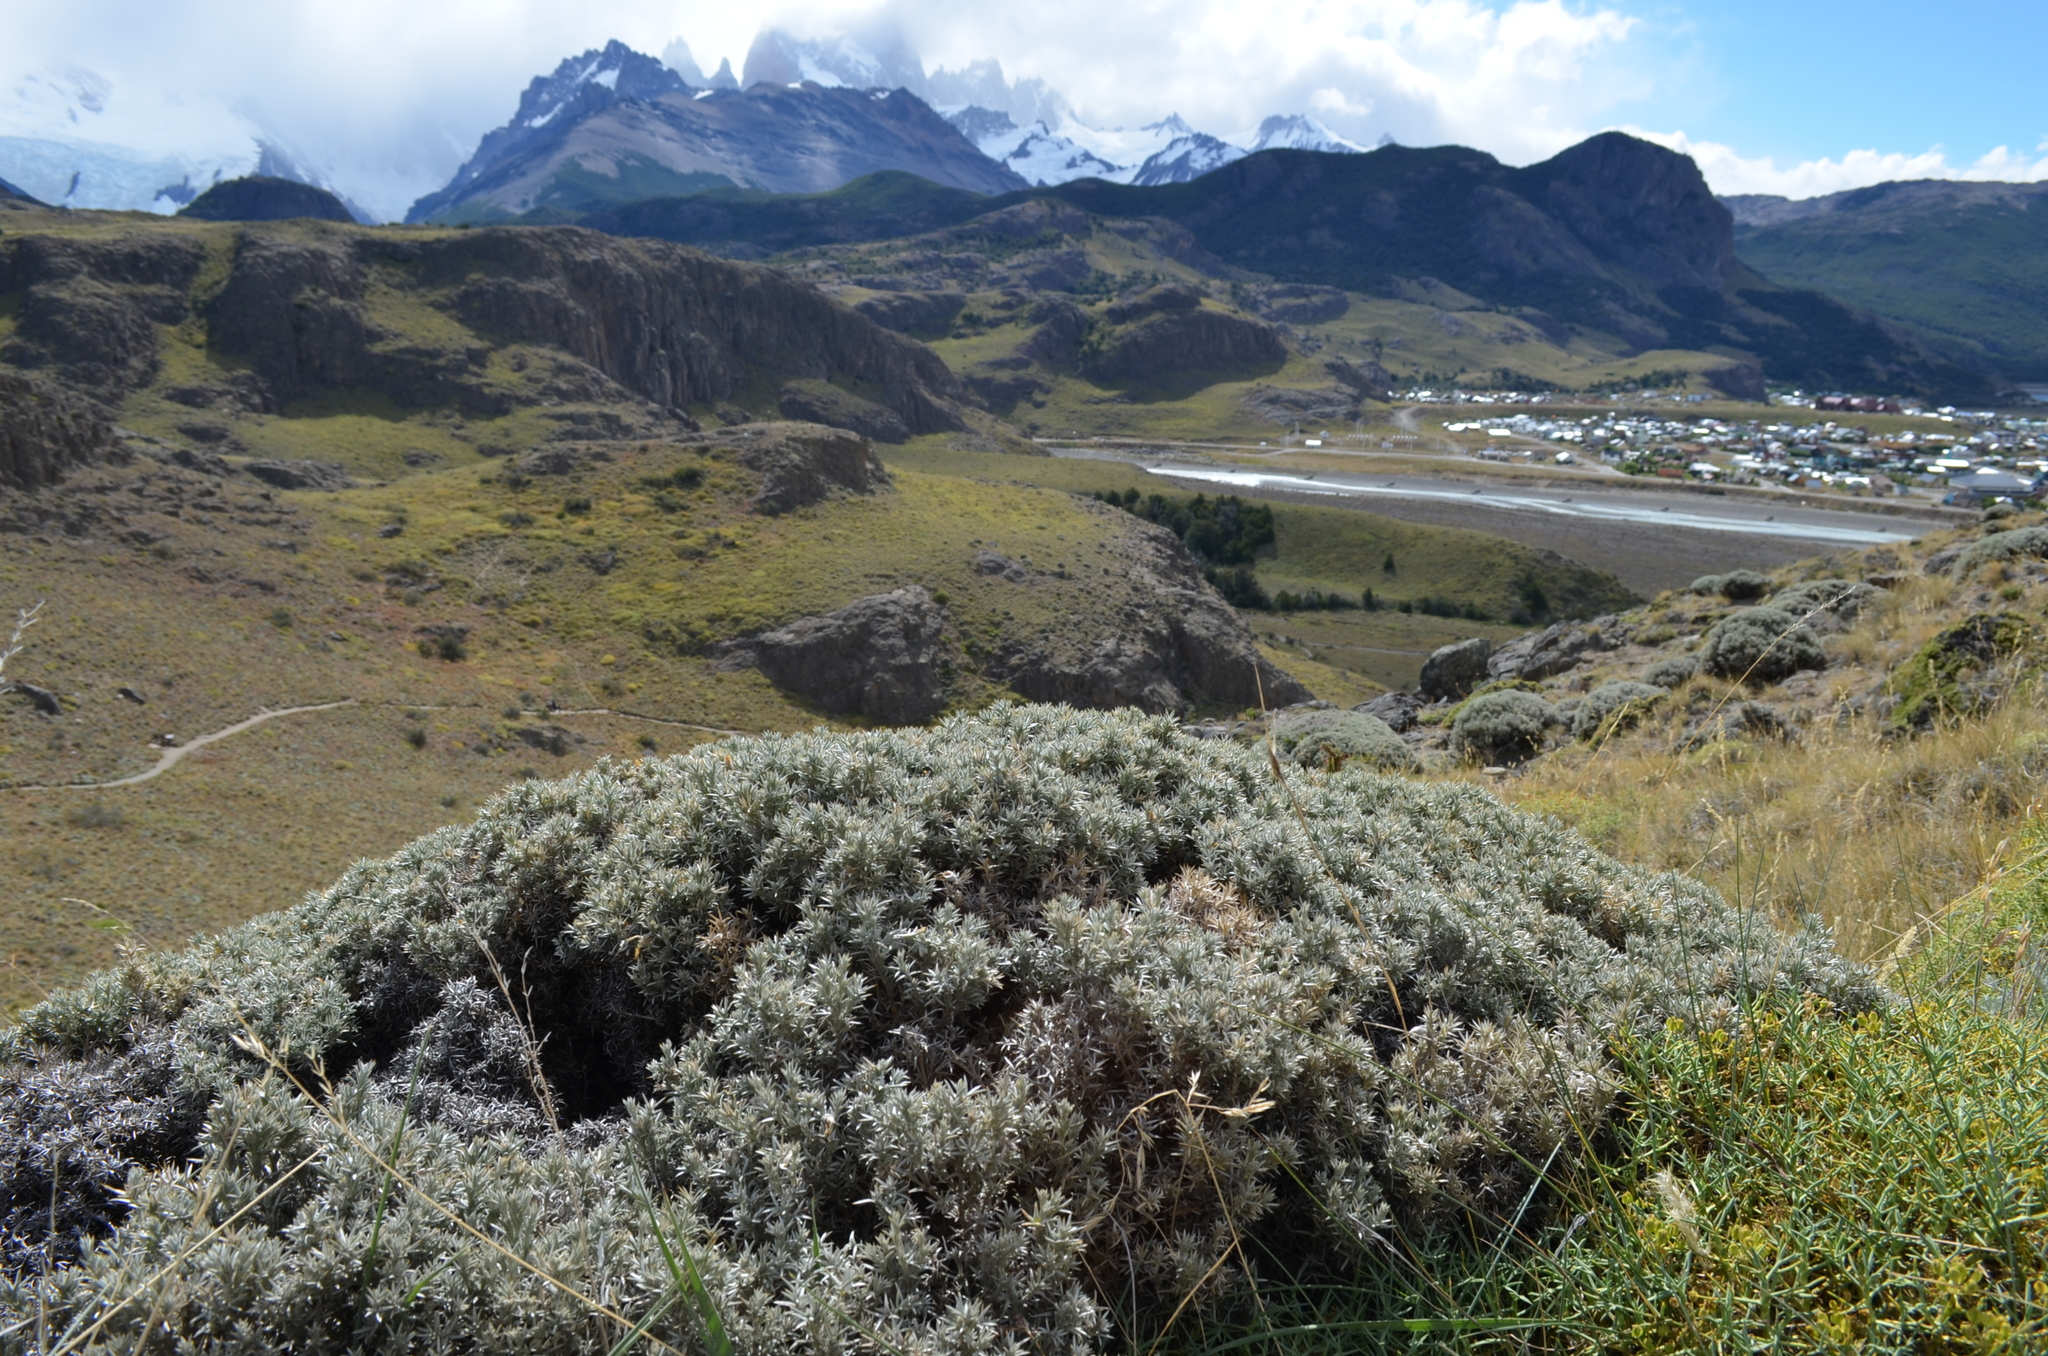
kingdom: Plantae
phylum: Tracheophyta
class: Magnoliopsida
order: Fabales
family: Fabaceae
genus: Anarthrophyllum
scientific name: Anarthrophyllum desideratum
